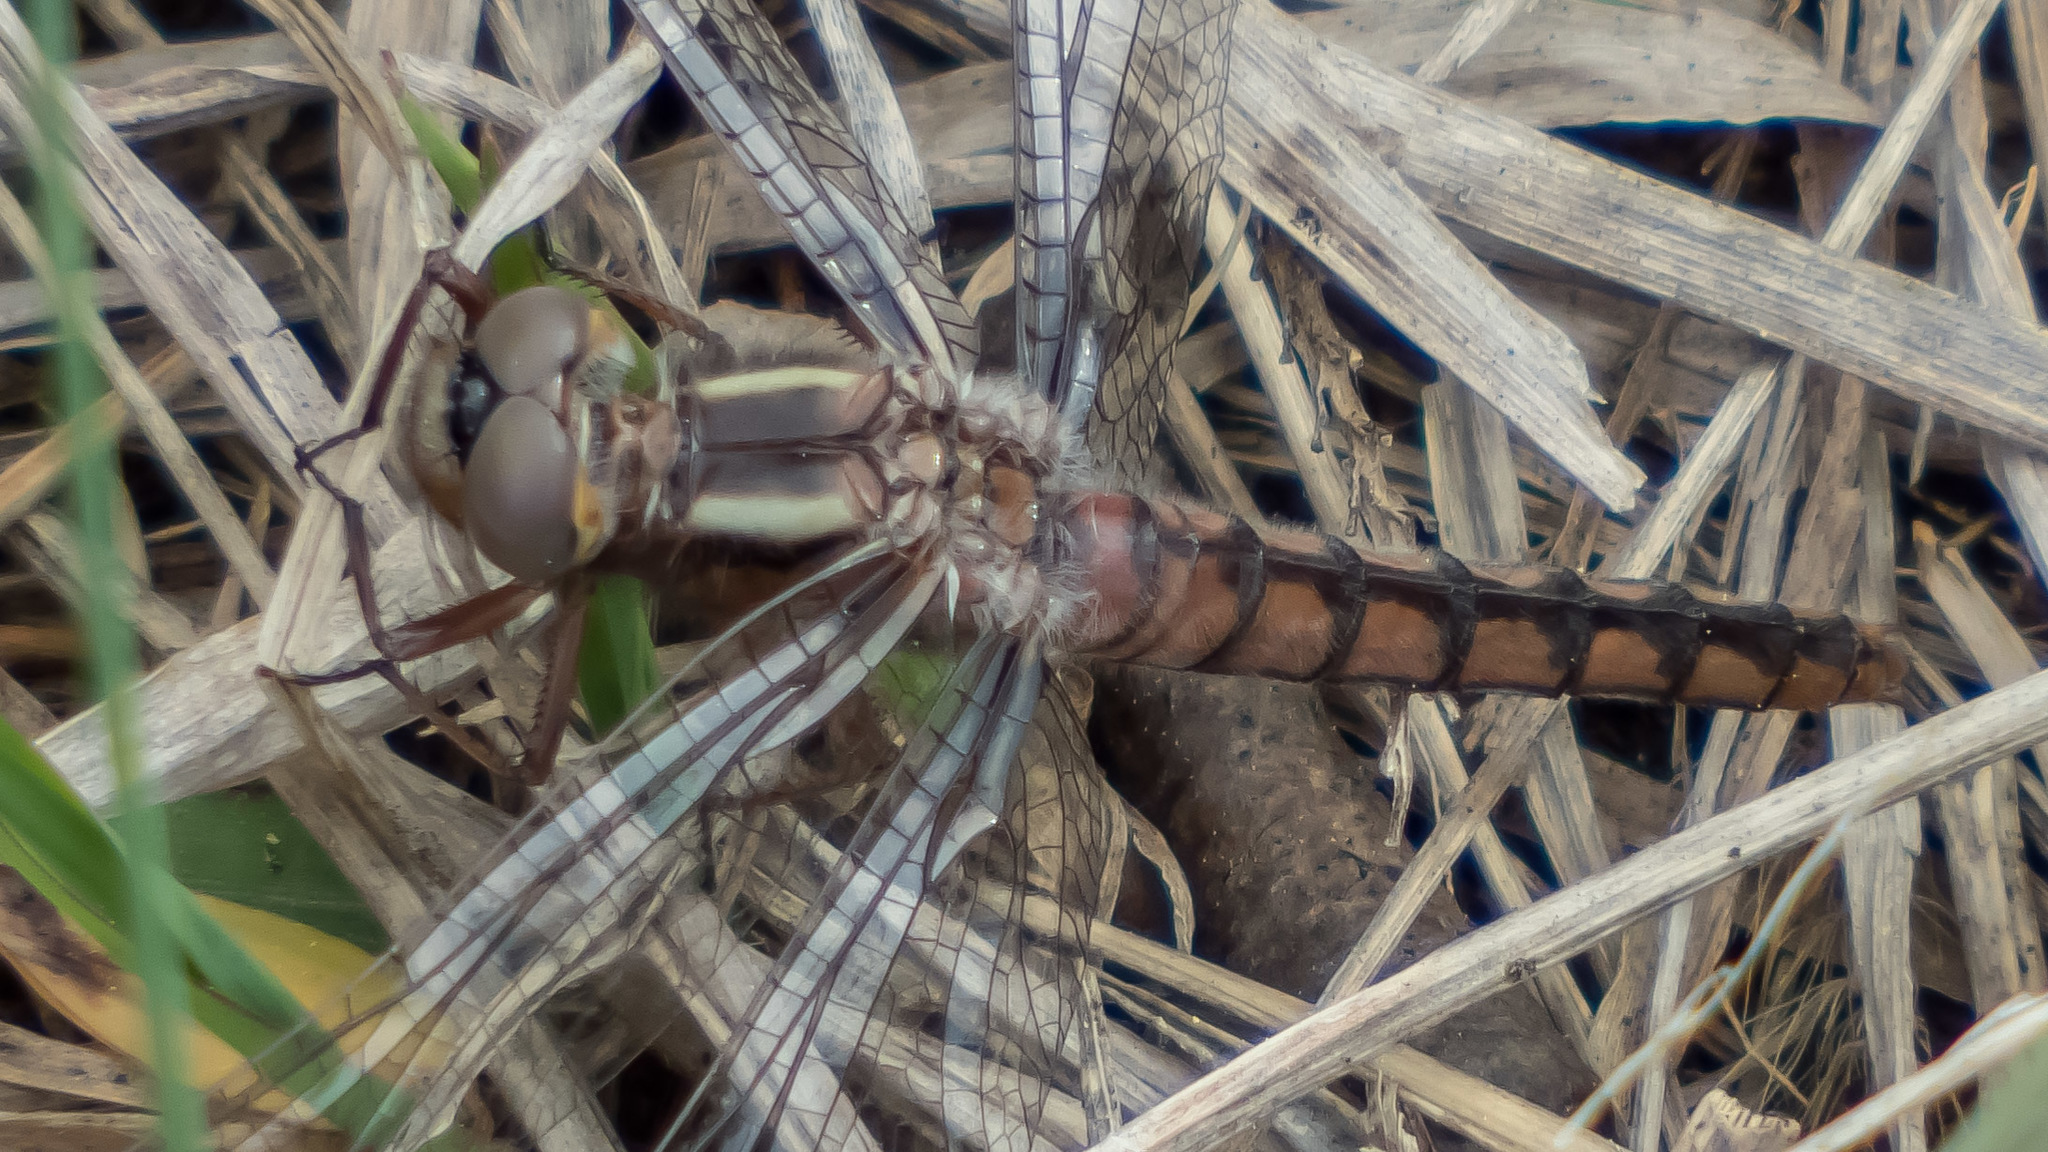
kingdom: Animalia
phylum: Arthropoda
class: Insecta
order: Odonata
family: Libellulidae
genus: Ladona
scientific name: Ladona deplanata
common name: Blue corporal
